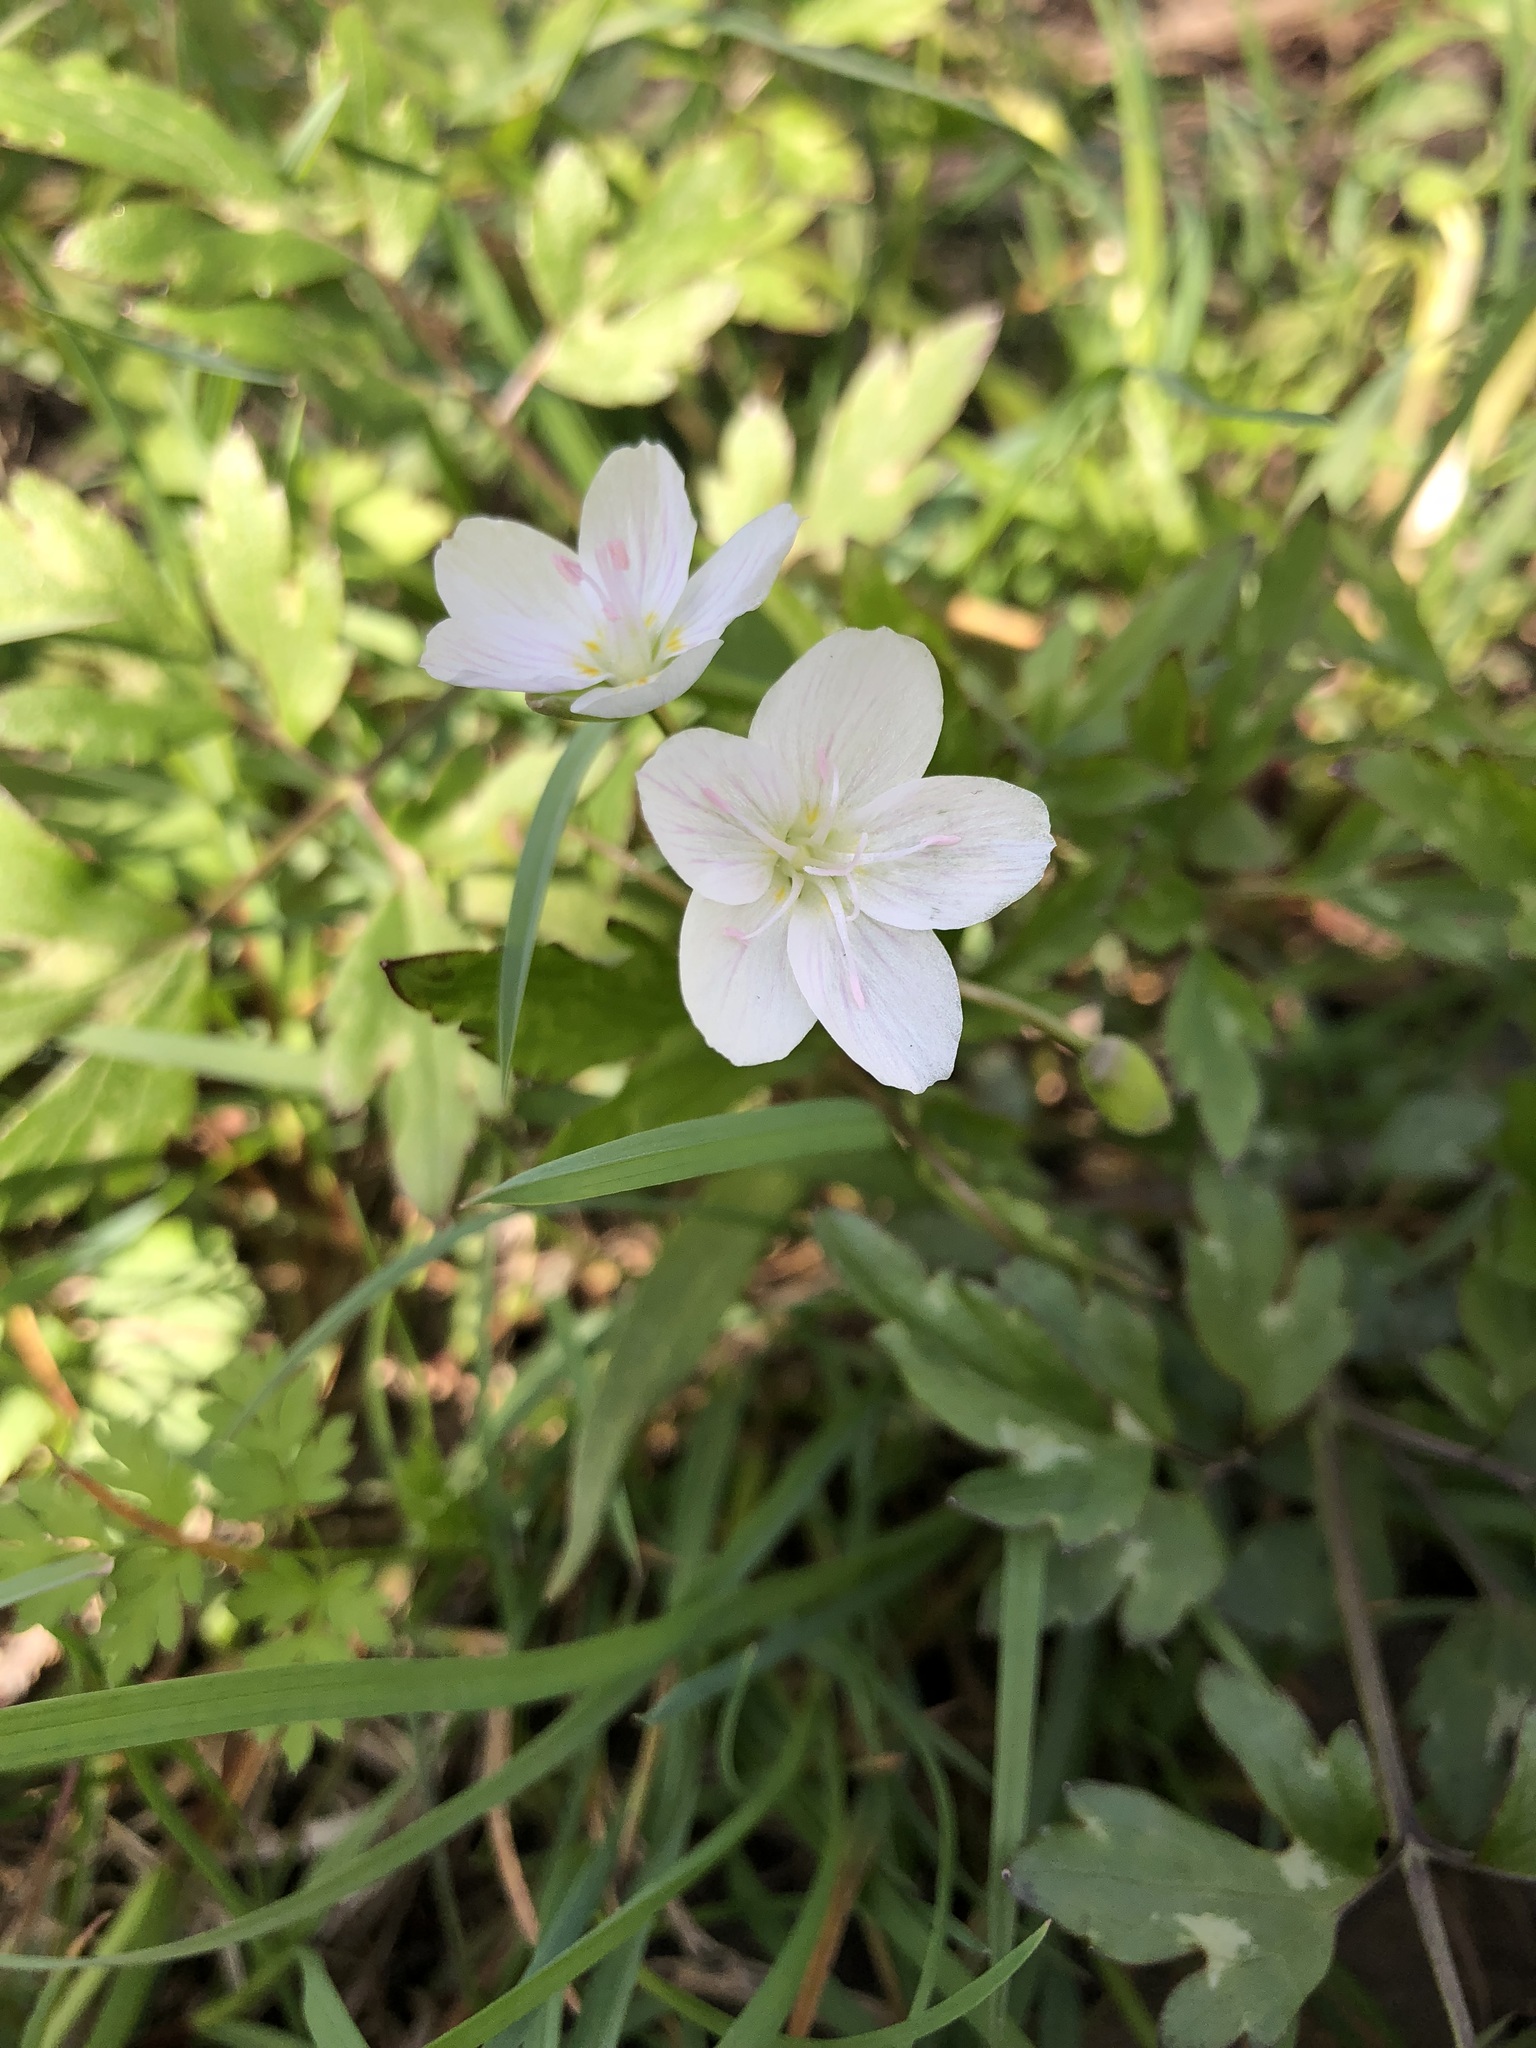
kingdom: Plantae
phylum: Tracheophyta
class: Magnoliopsida
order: Caryophyllales
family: Montiaceae
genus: Claytonia
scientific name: Claytonia virginica
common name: Virginia springbeauty
